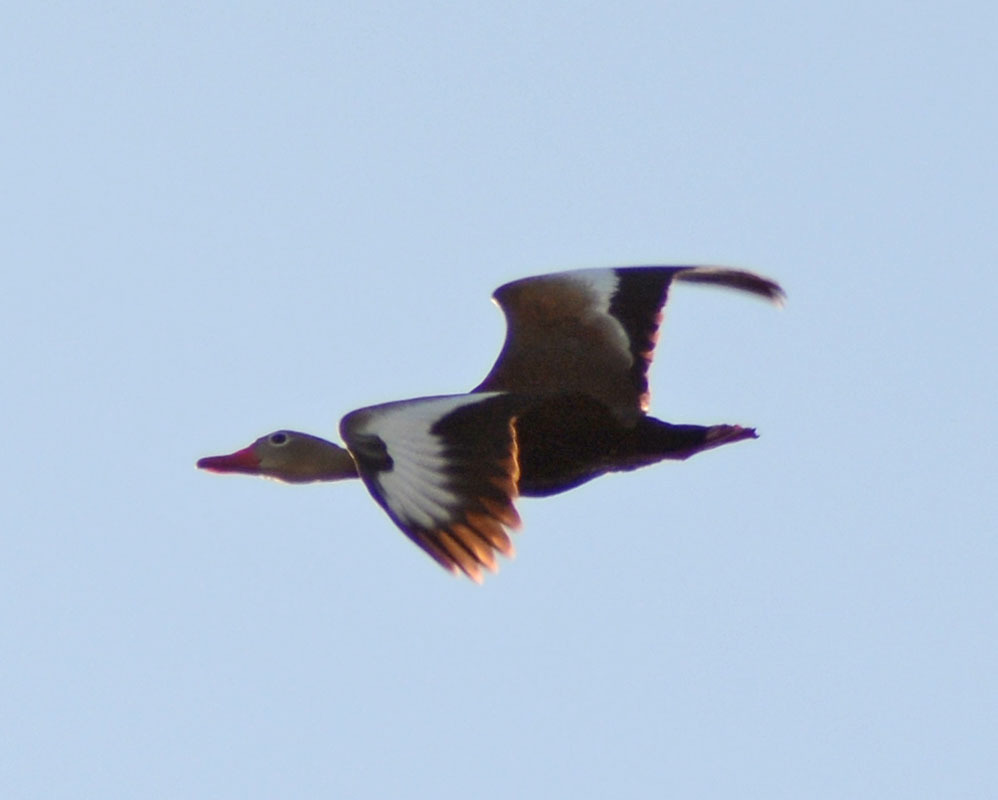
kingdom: Animalia
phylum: Chordata
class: Aves
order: Anseriformes
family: Anatidae
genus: Dendrocygna
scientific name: Dendrocygna autumnalis
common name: Black-bellied whistling duck
